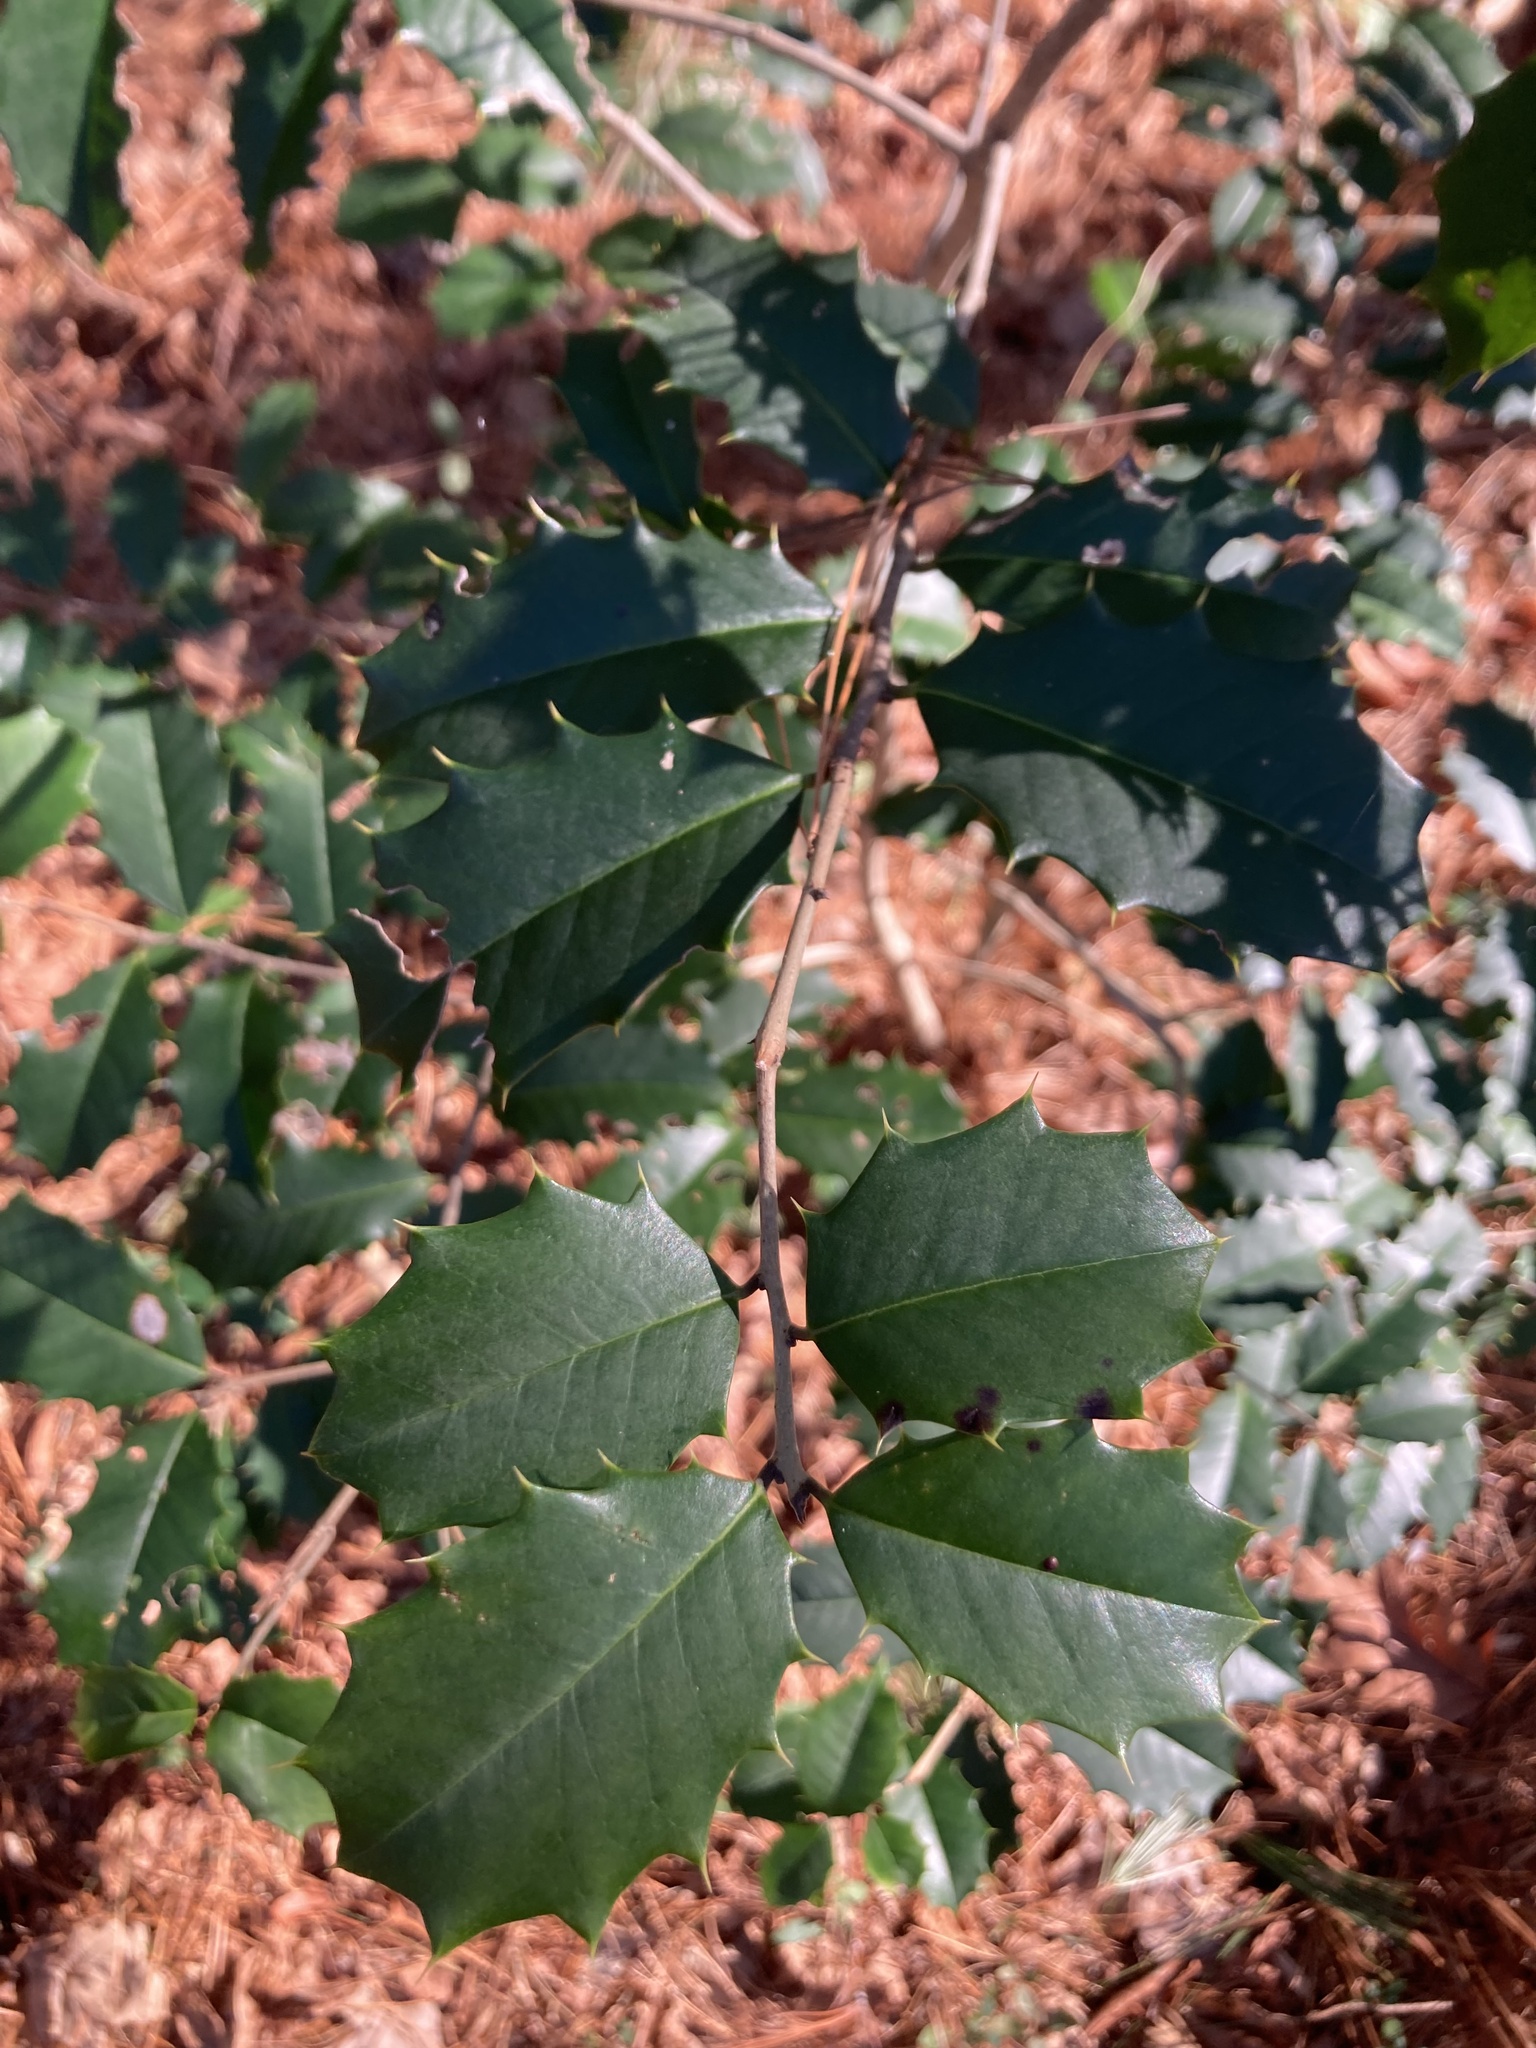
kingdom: Plantae
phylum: Tracheophyta
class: Magnoliopsida
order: Aquifoliales
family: Aquifoliaceae
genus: Ilex
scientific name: Ilex opaca
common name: American holly
